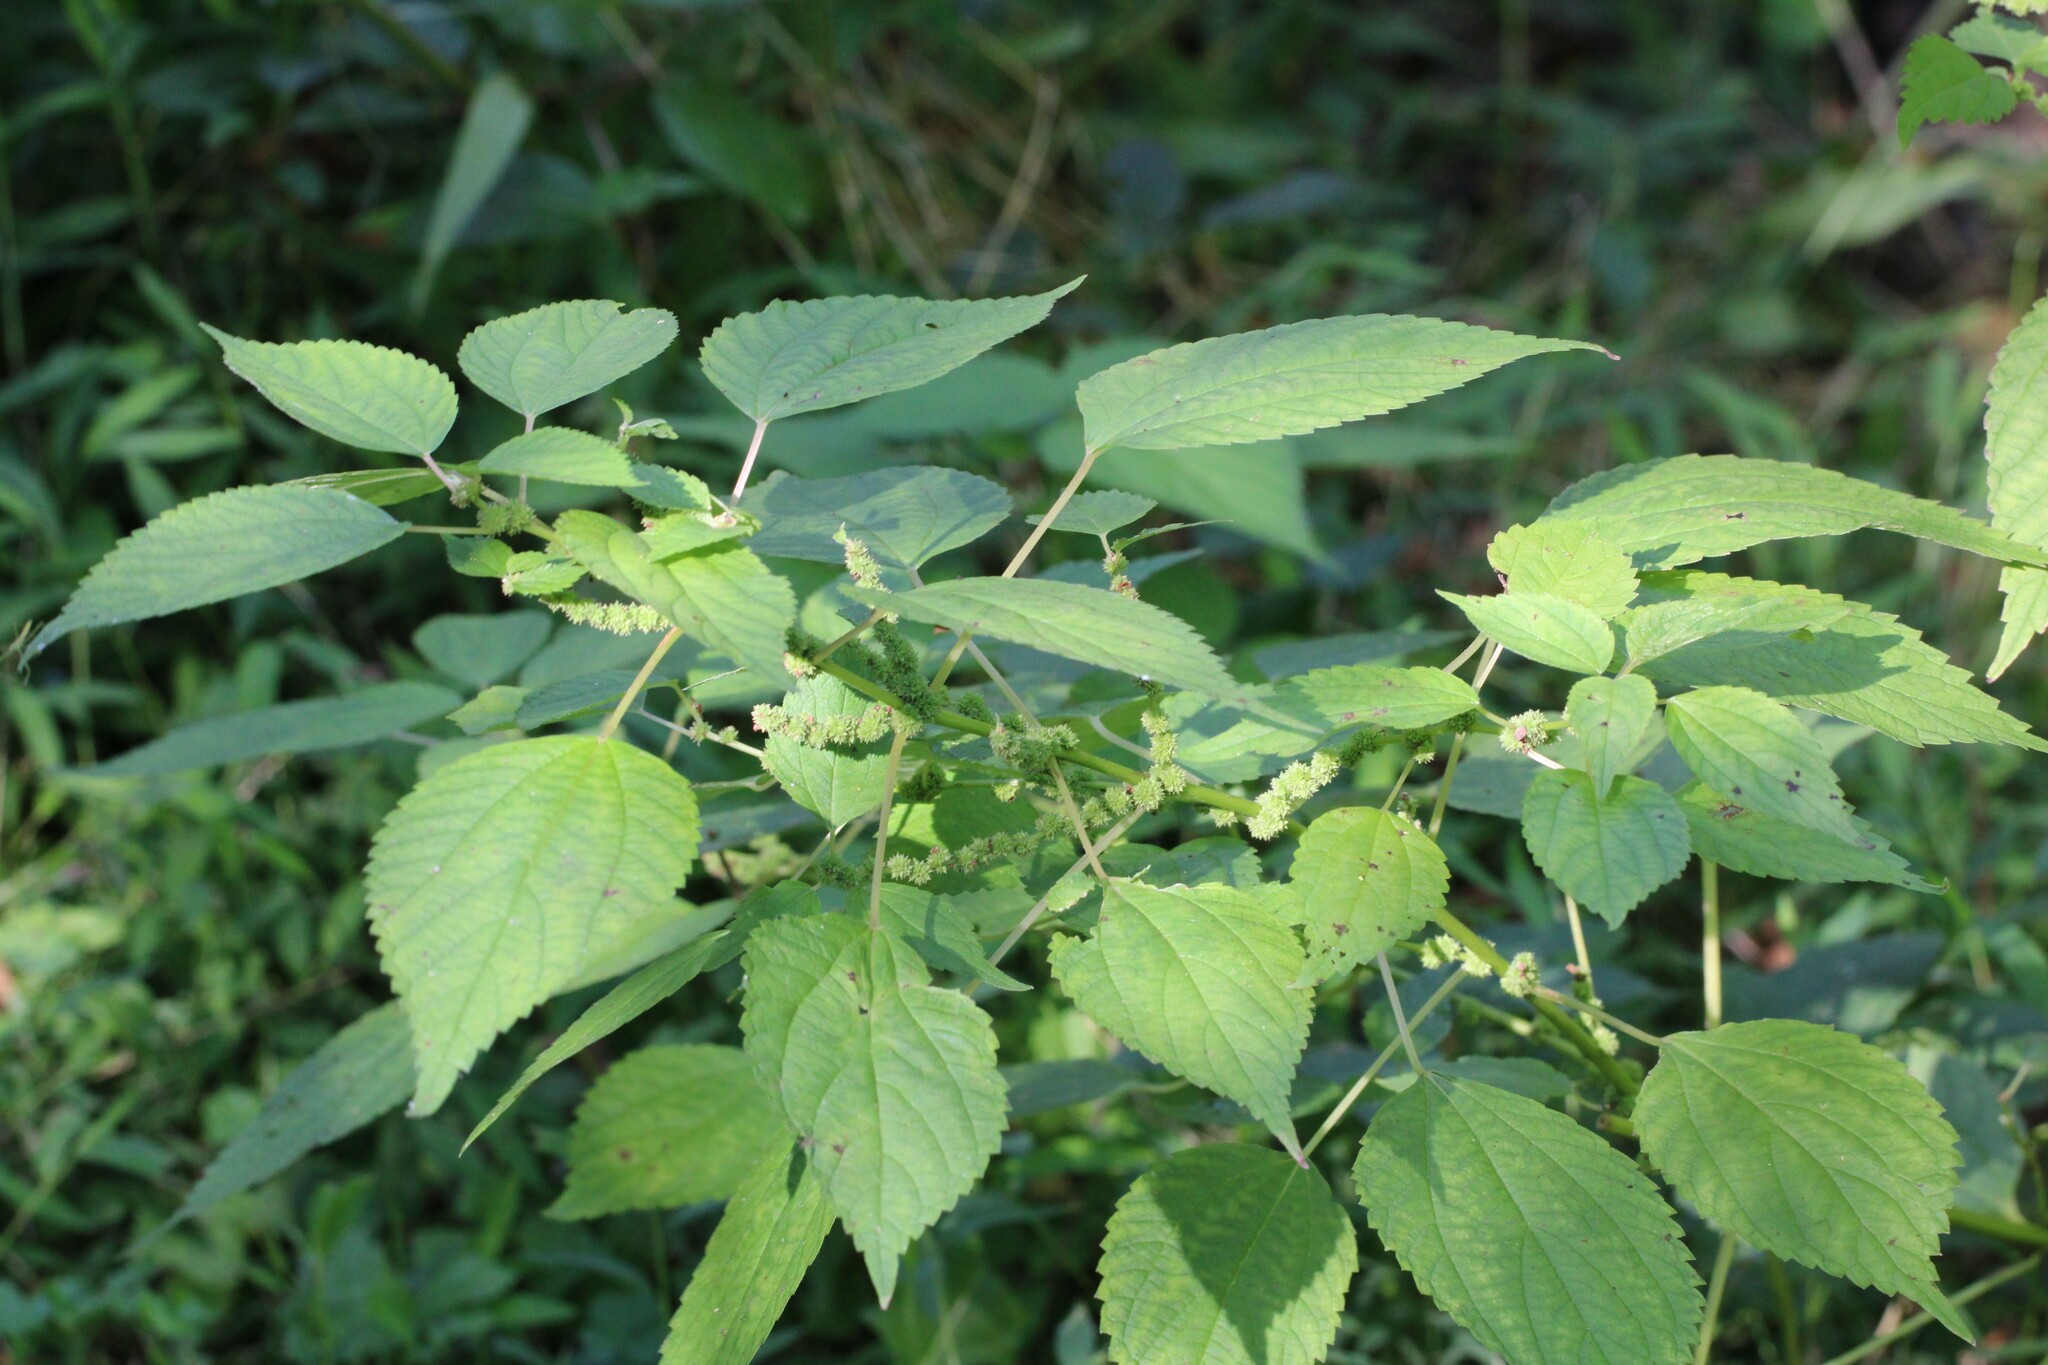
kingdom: Plantae
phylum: Tracheophyta
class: Magnoliopsida
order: Rosales
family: Urticaceae
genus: Boehmeria
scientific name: Boehmeria cylindrica
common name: Bog-hemp
